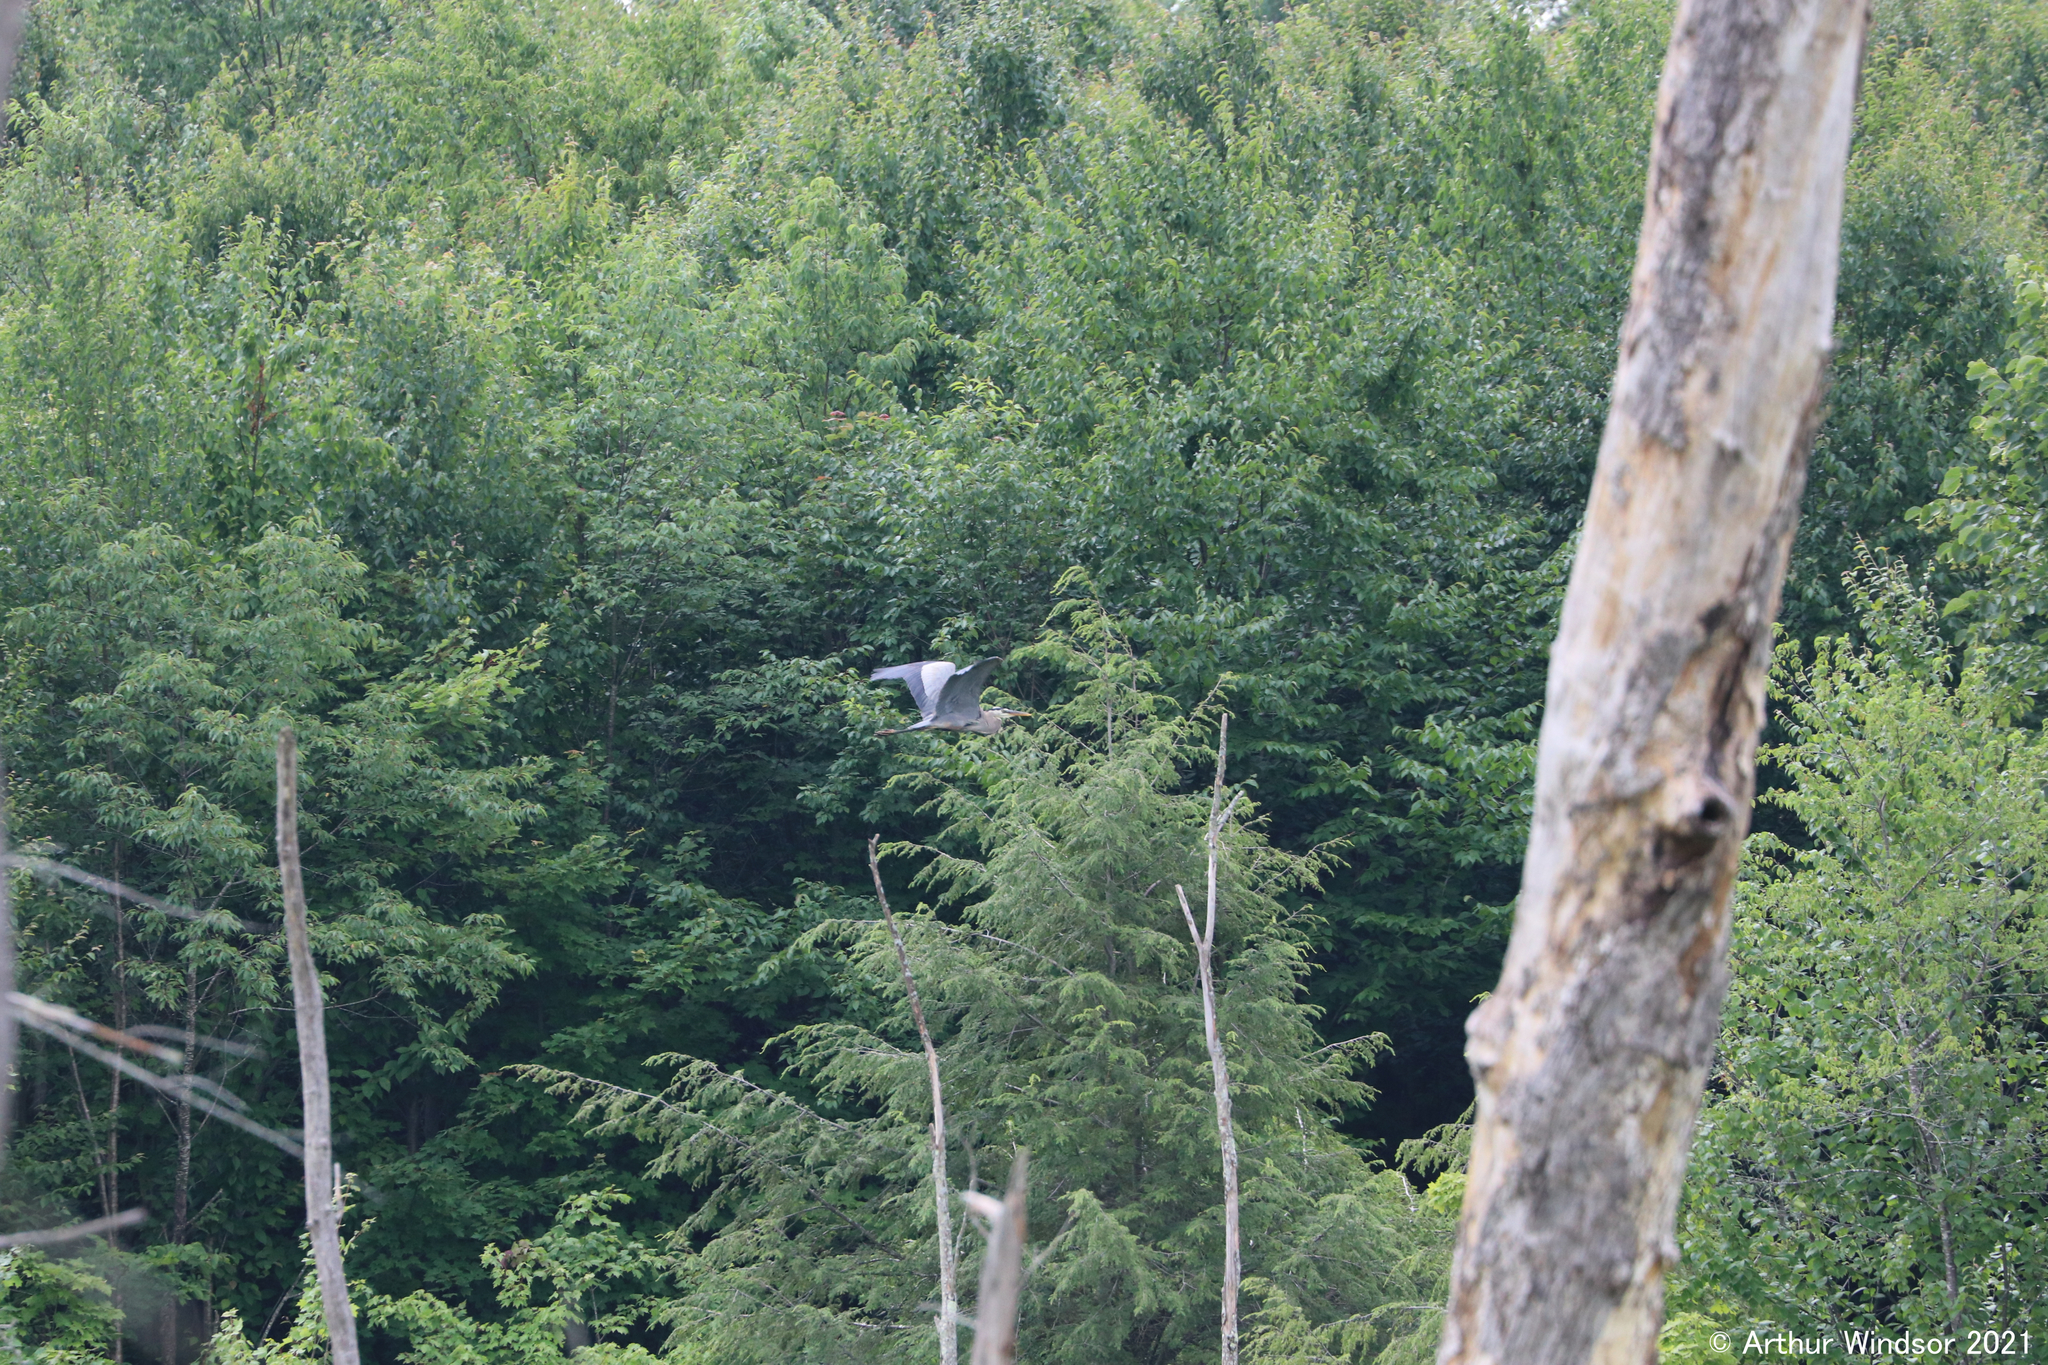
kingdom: Animalia
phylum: Chordata
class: Aves
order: Pelecaniformes
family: Ardeidae
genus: Ardea
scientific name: Ardea herodias
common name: Great blue heron
